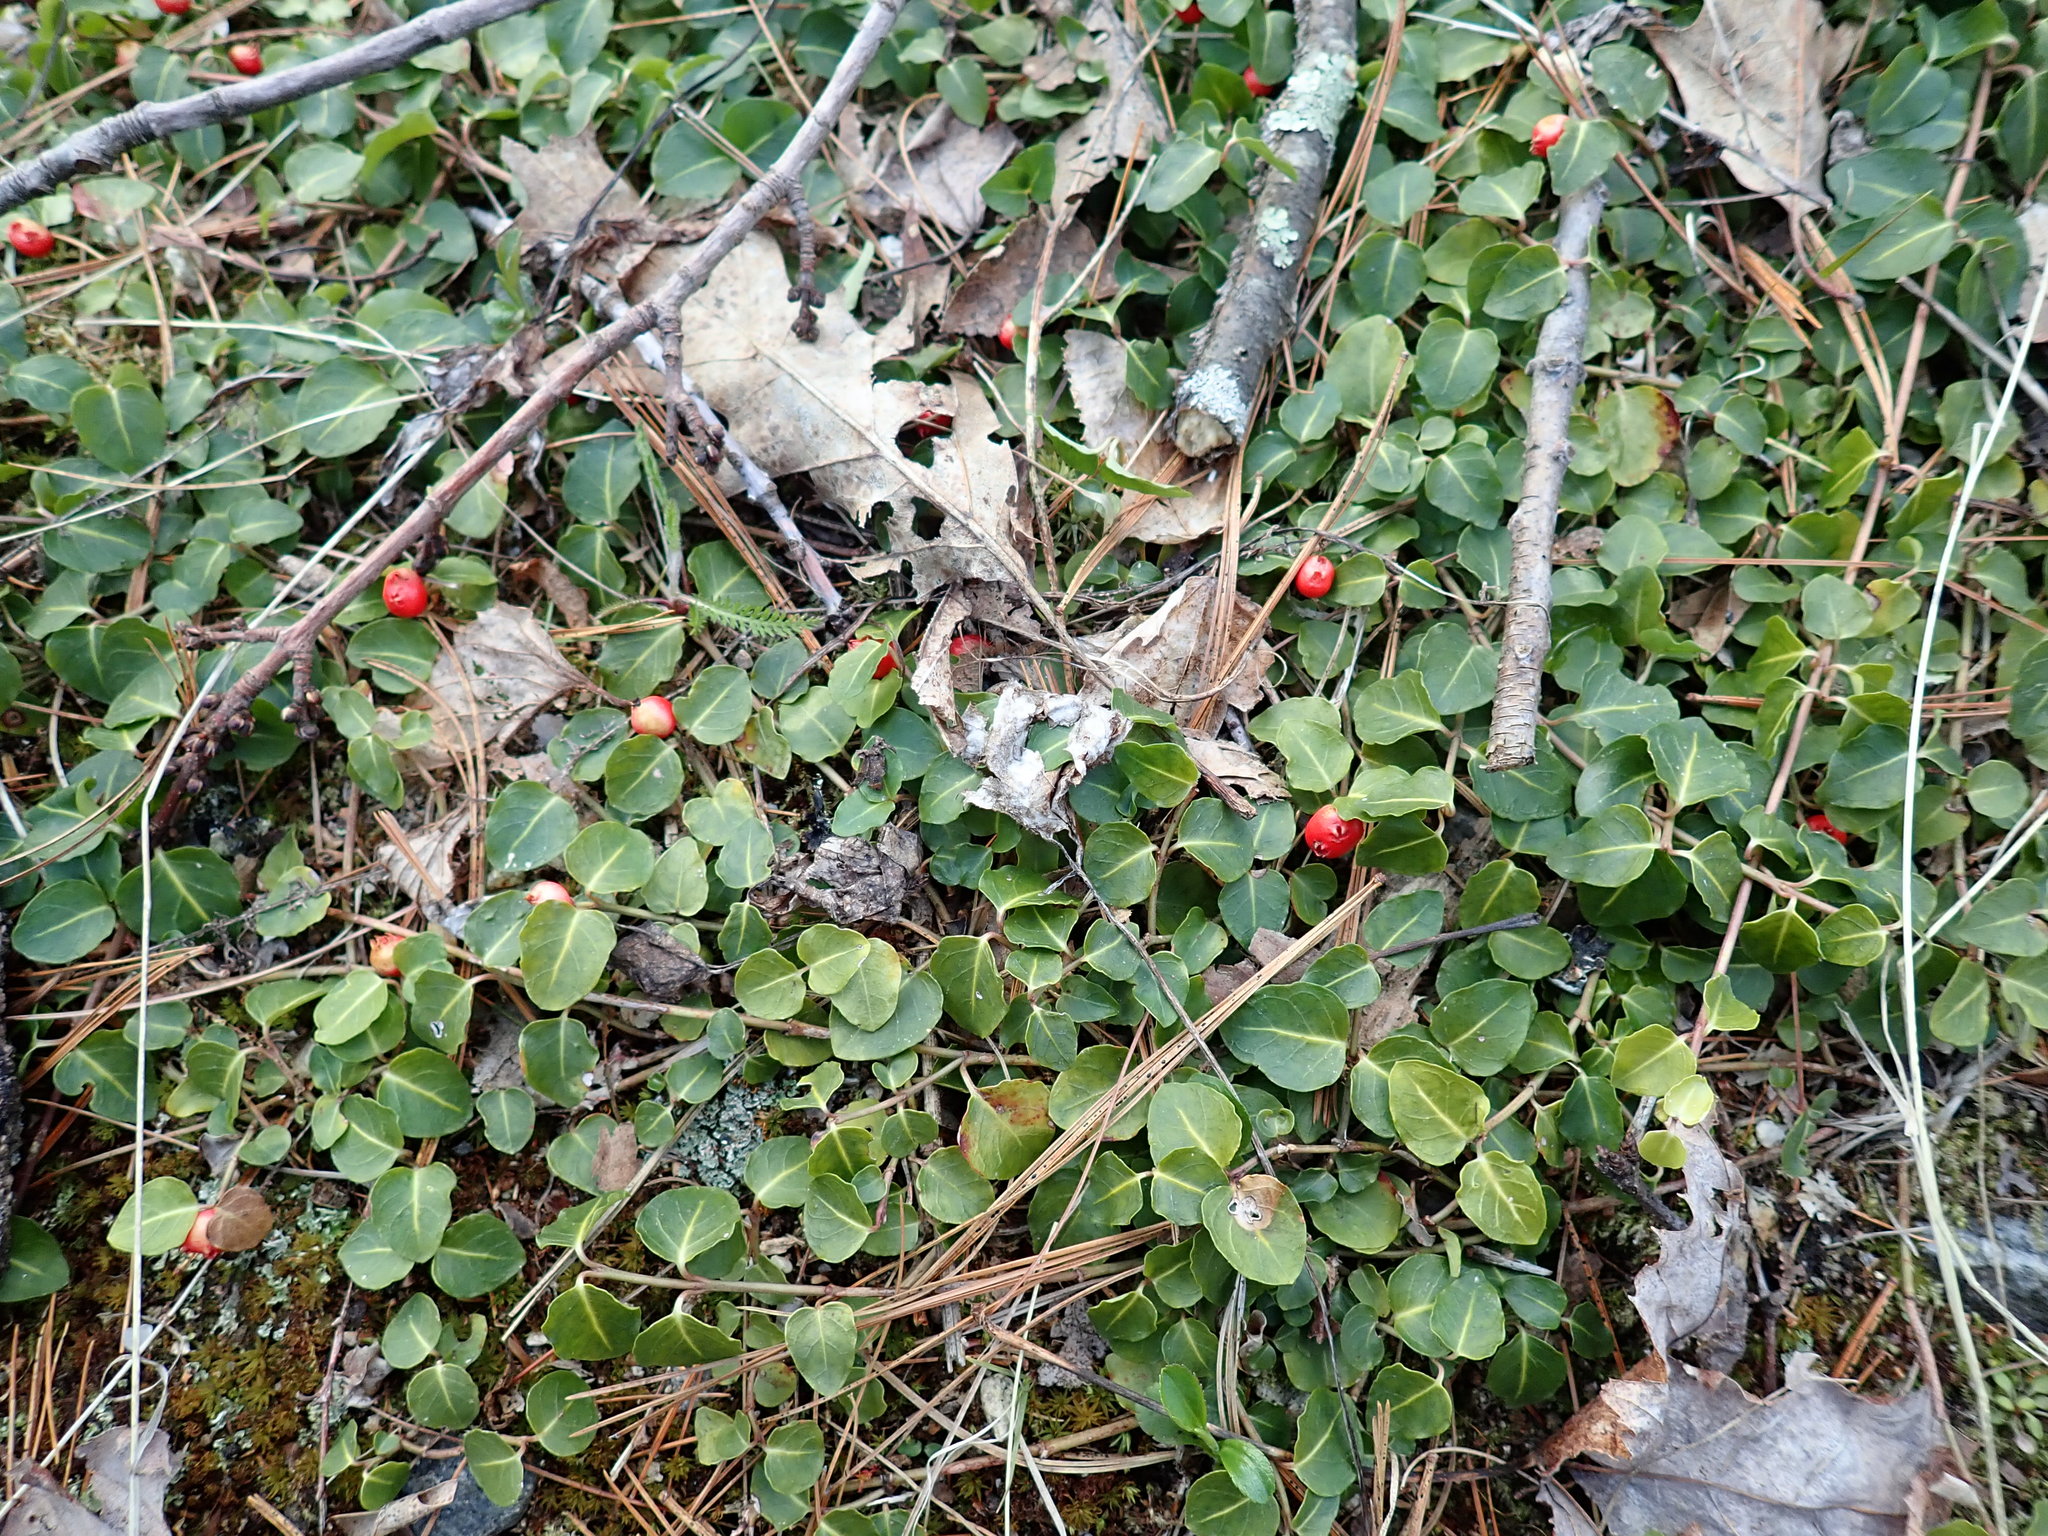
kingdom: Plantae
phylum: Tracheophyta
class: Magnoliopsida
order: Gentianales
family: Rubiaceae
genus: Mitchella
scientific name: Mitchella repens
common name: Partridge-berry
